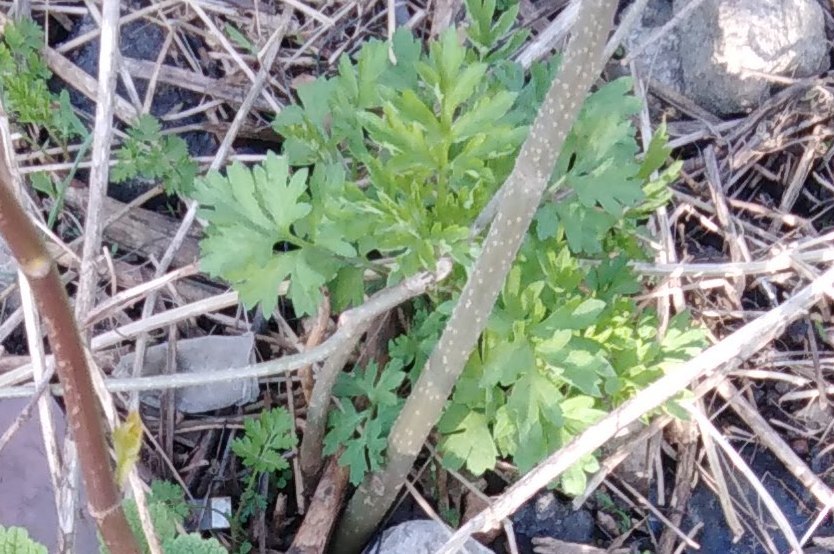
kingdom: Plantae
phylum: Tracheophyta
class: Magnoliopsida
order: Asterales
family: Asteraceae
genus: Artemisia
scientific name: Artemisia vulgaris
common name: Mugwort
